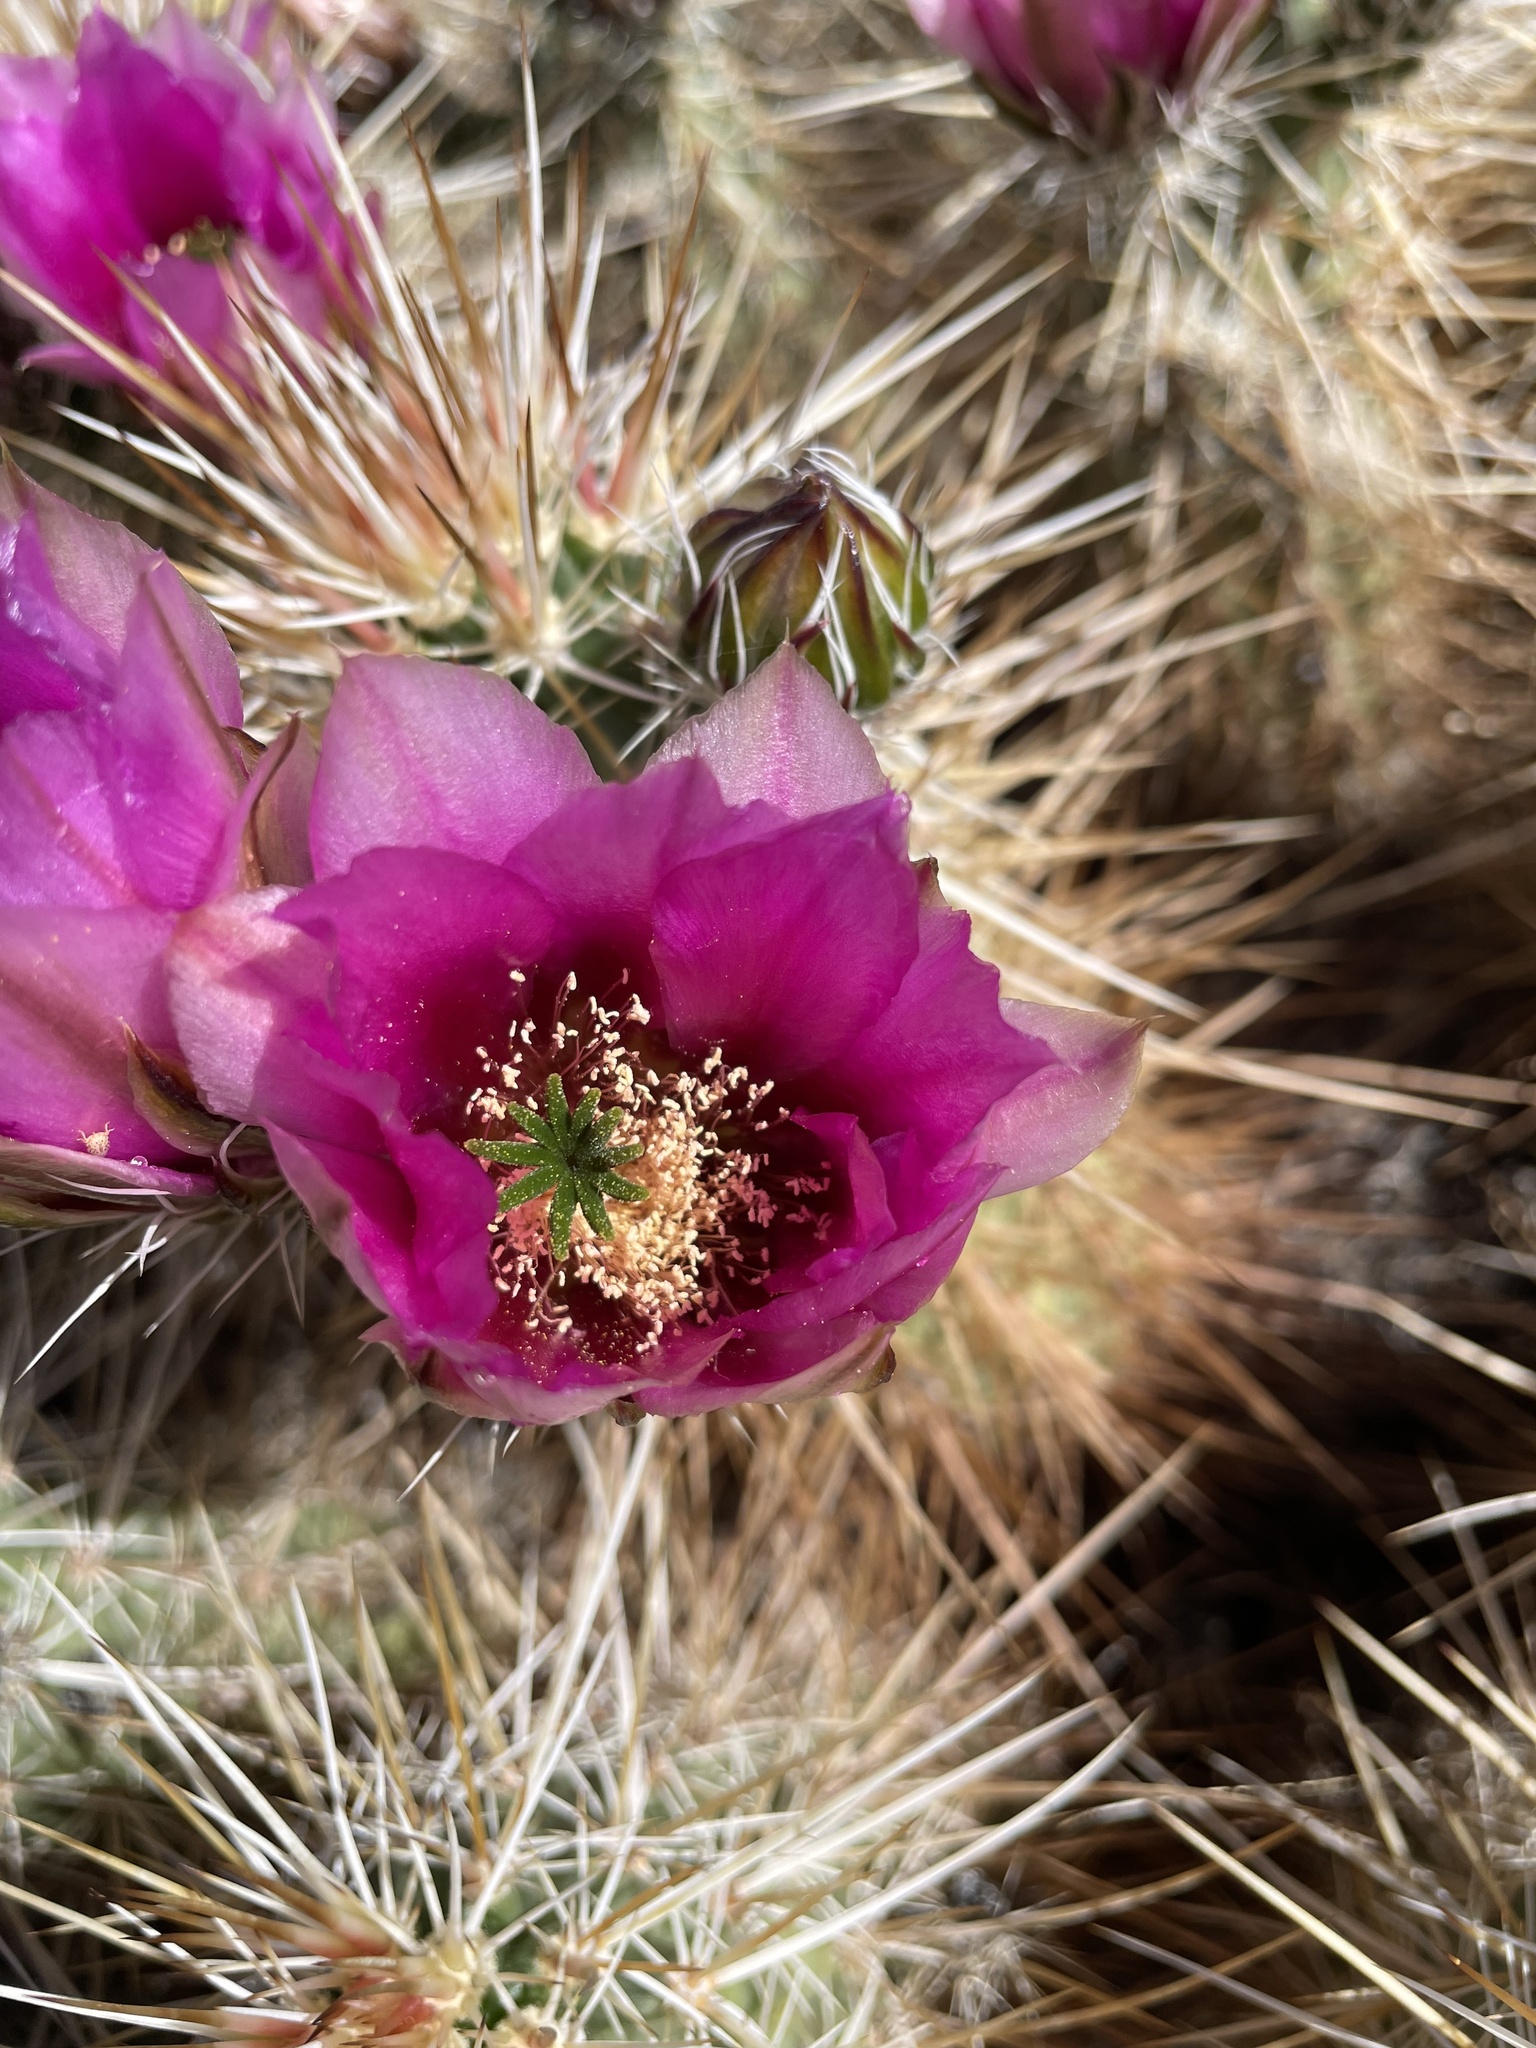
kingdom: Plantae
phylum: Tracheophyta
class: Magnoliopsida
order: Caryophyllales
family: Cactaceae
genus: Echinocereus
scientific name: Echinocereus engelmannii
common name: Engelmann's hedgehog cactus
